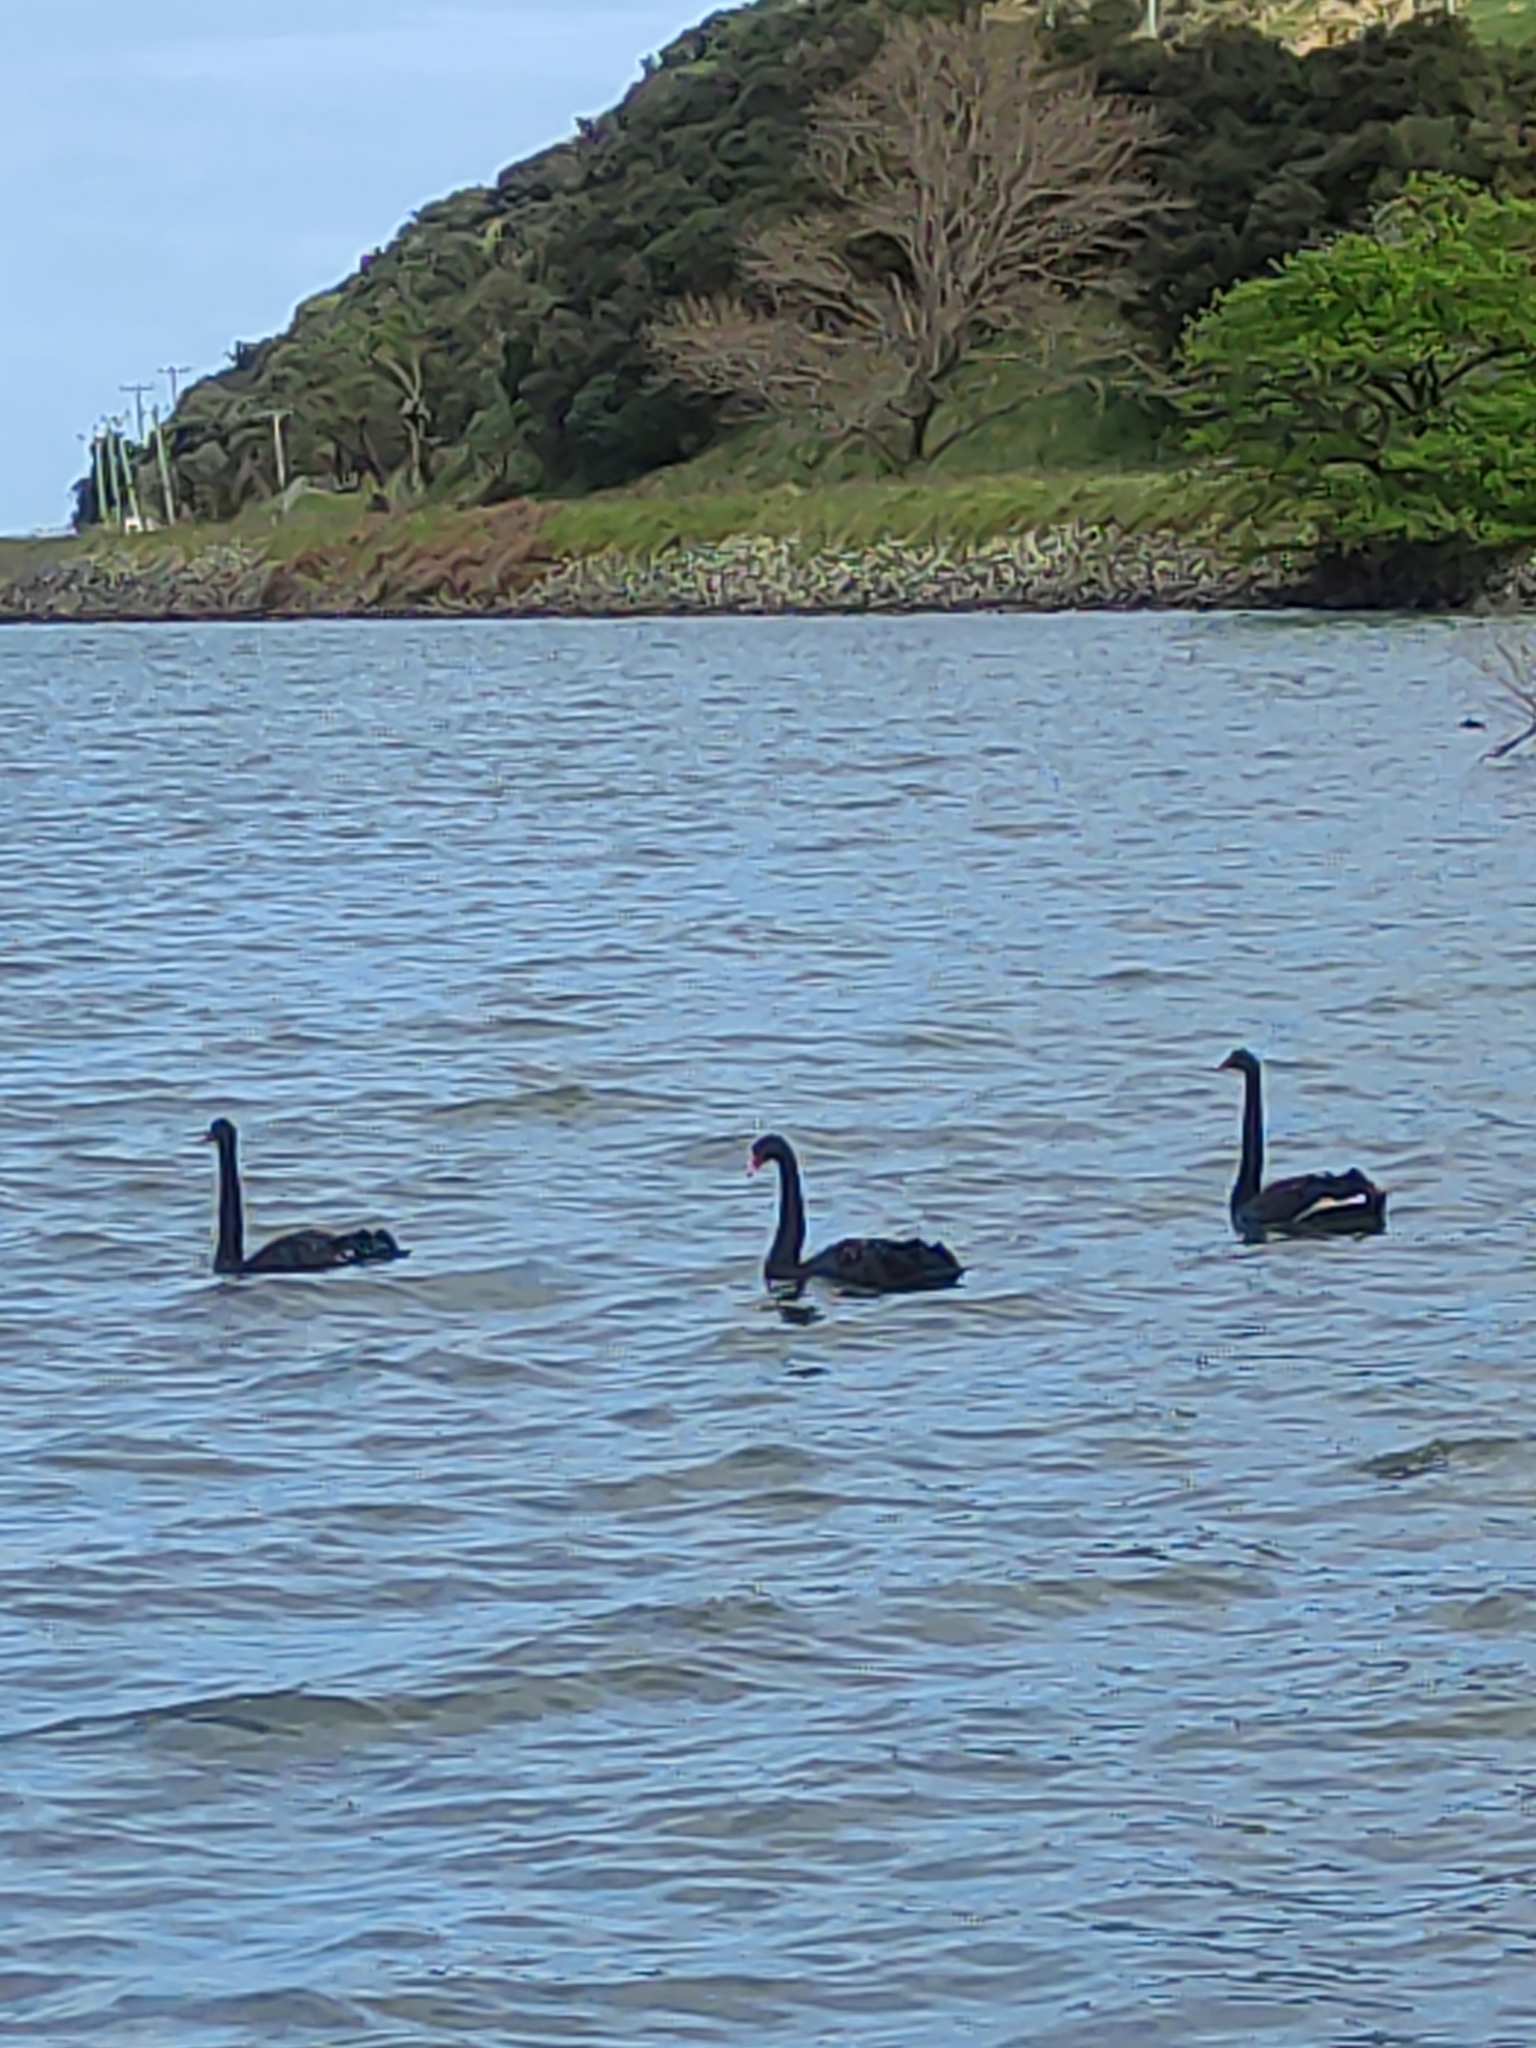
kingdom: Animalia
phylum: Chordata
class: Aves
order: Anseriformes
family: Anatidae
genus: Cygnus
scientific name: Cygnus atratus
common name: Black swan
